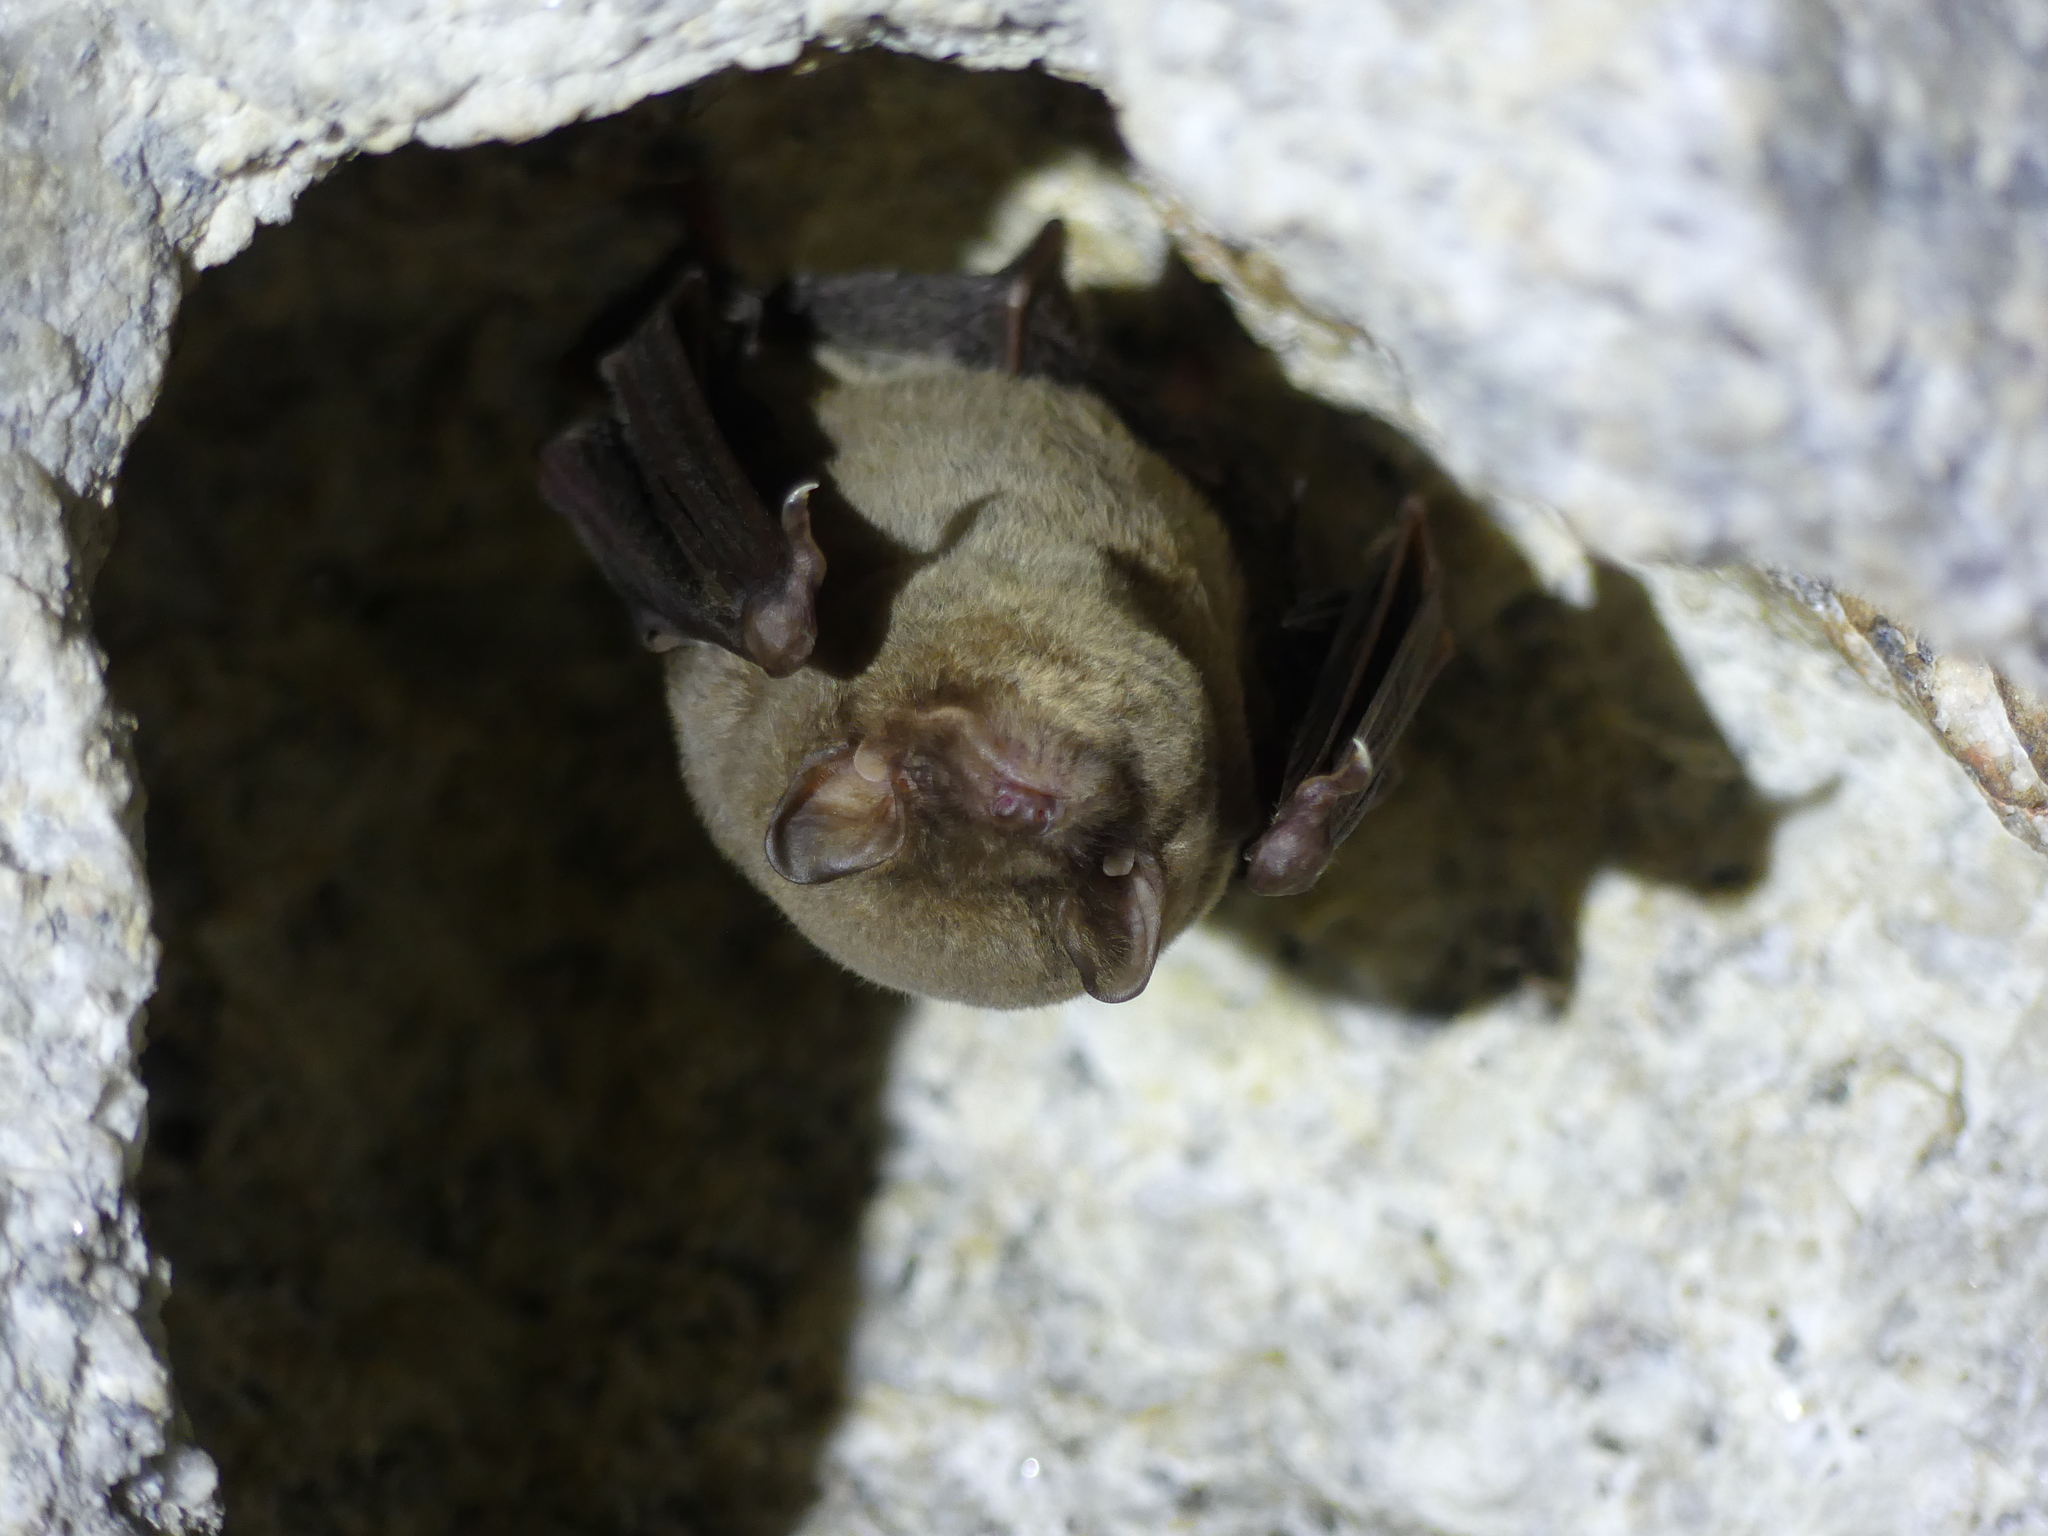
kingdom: Animalia
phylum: Chordata
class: Mammalia
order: Chiroptera
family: Miniopteridae
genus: Miniopterus
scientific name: Miniopterus schreibersii
